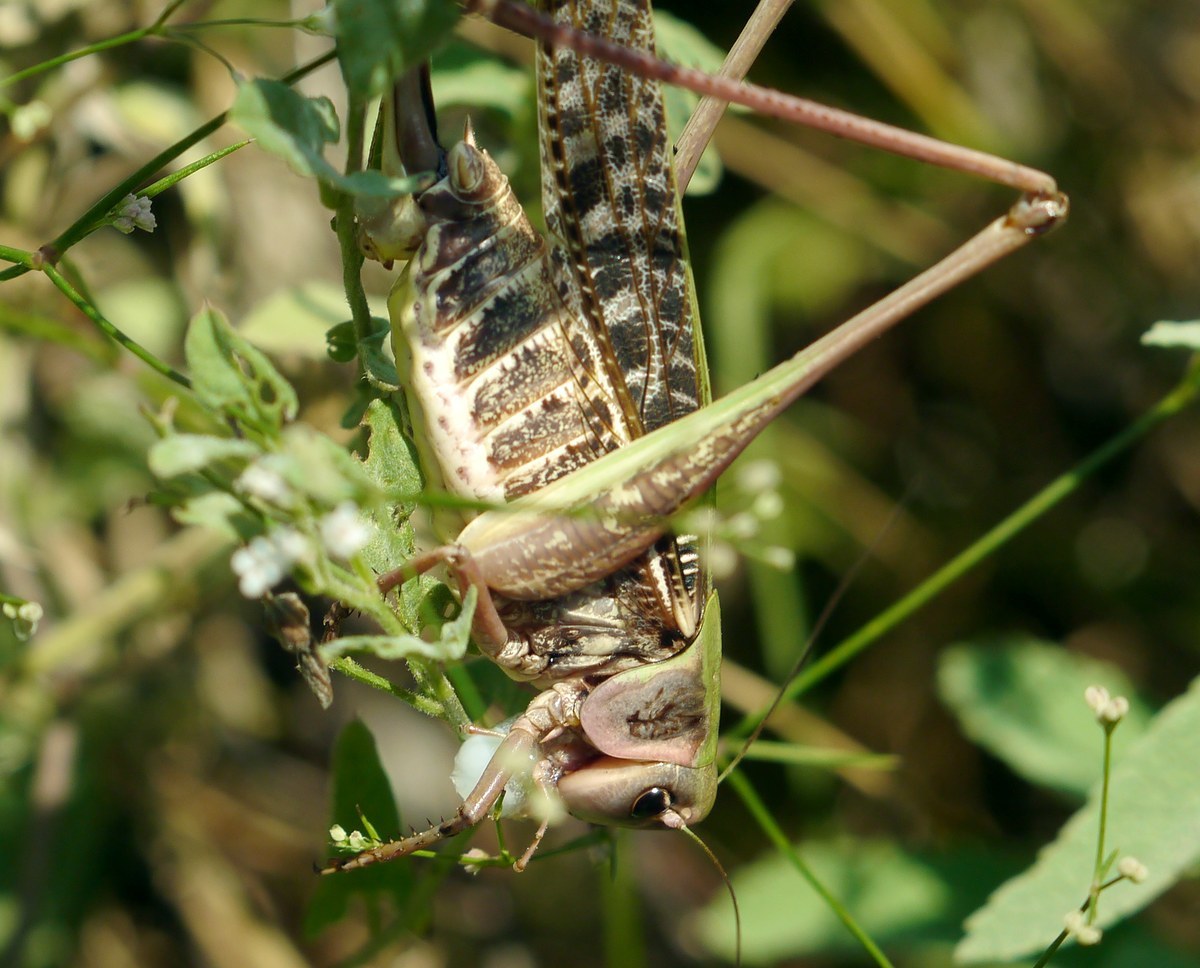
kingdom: Animalia
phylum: Arthropoda
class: Insecta
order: Orthoptera
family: Tettigoniidae
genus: Decticus
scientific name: Decticus verrucivorus
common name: Wart-biter
